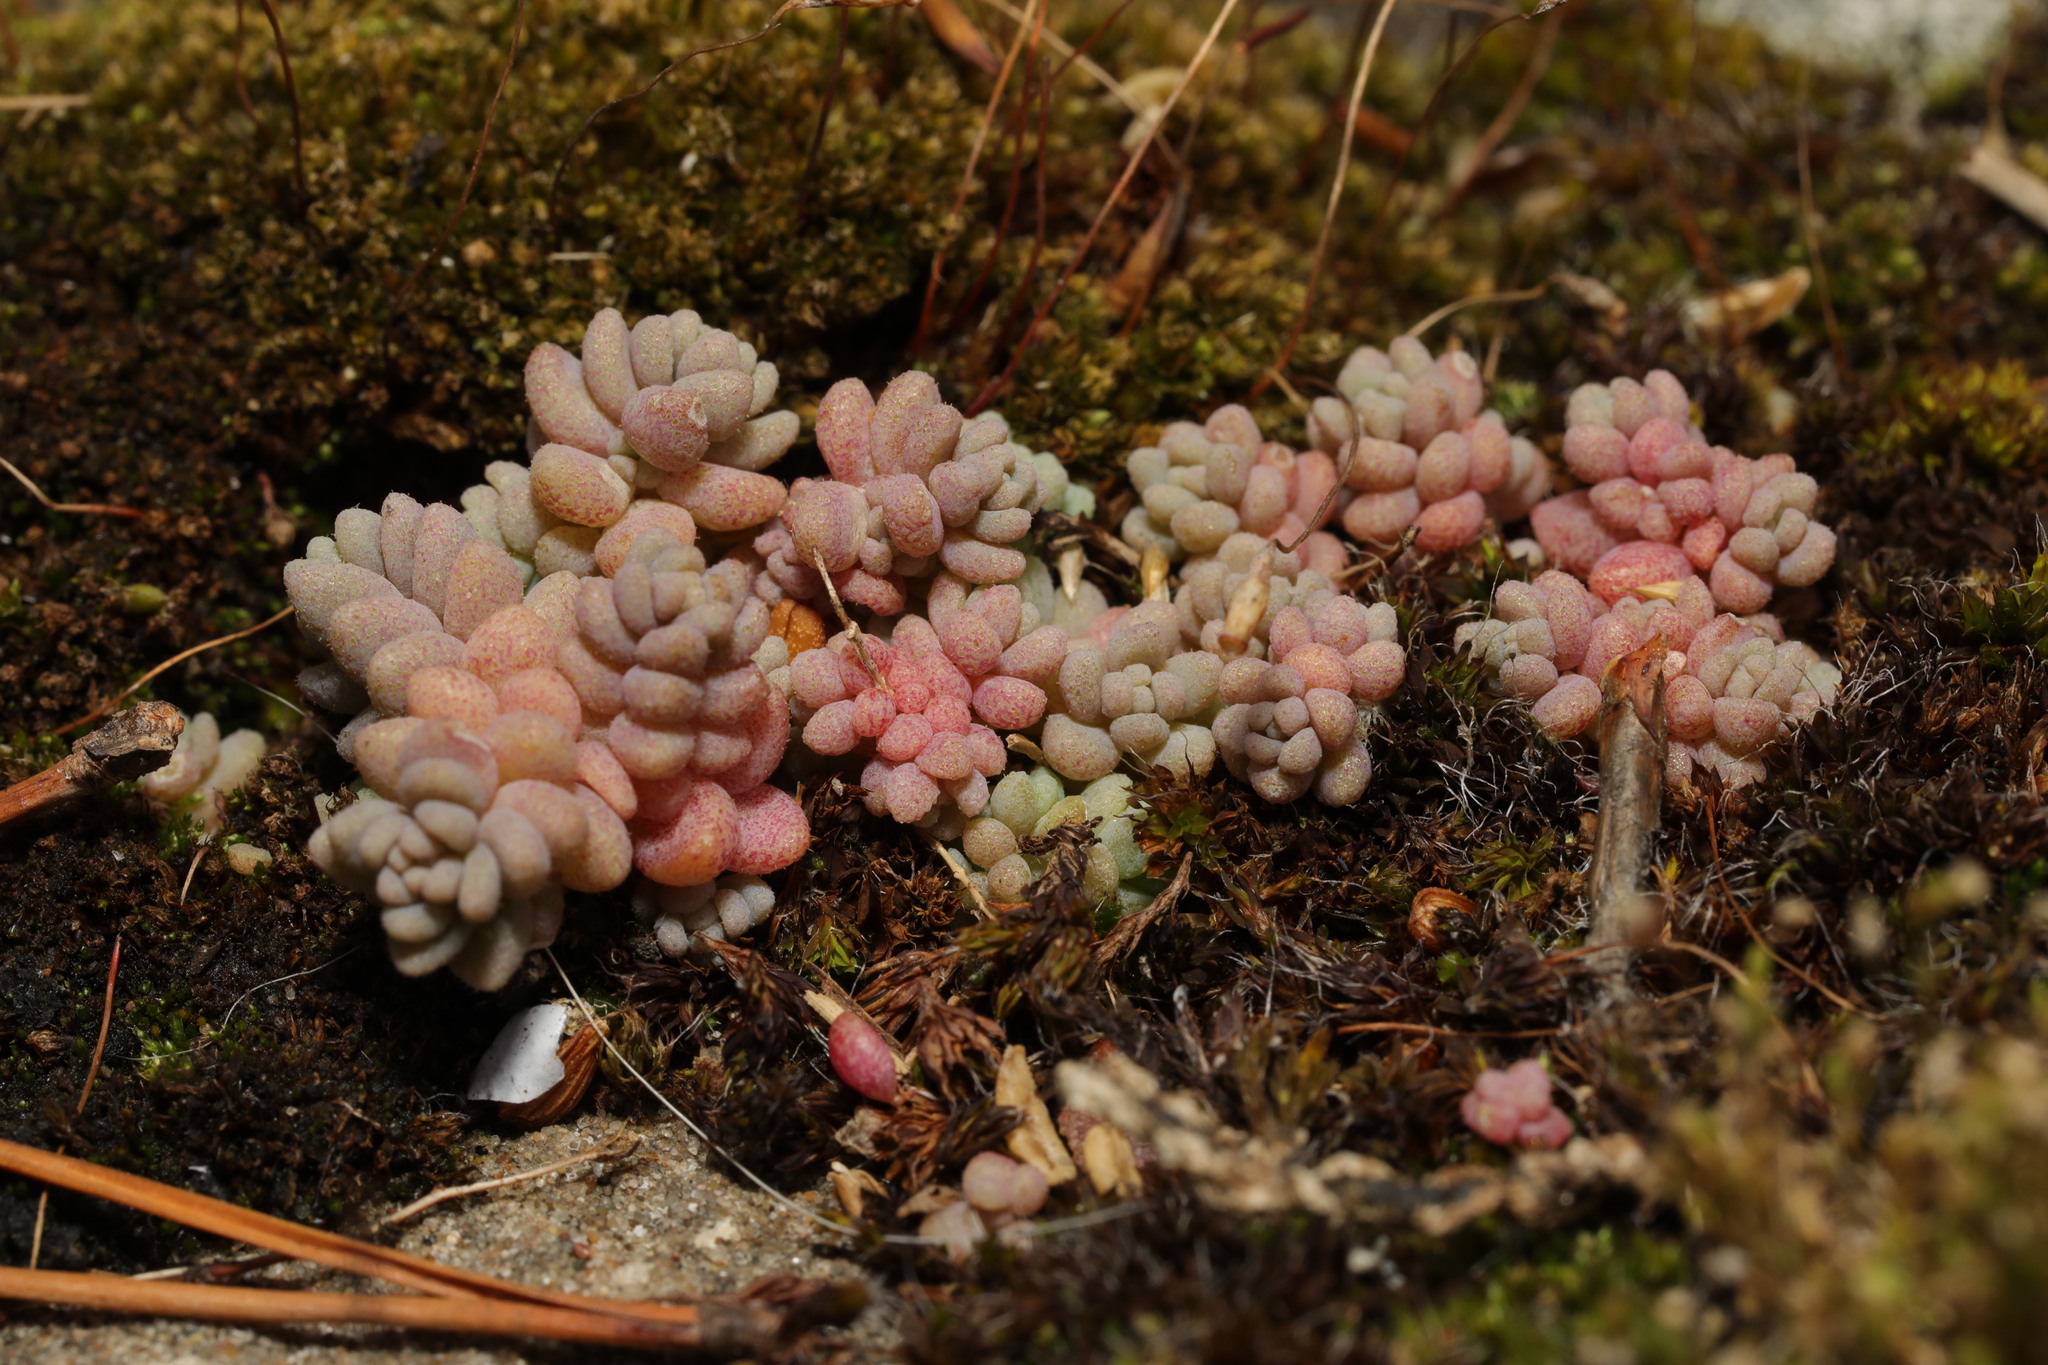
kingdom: Plantae
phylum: Tracheophyta
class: Magnoliopsida
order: Saxifragales
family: Crassulaceae
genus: Sedum
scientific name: Sedum dasyphyllum
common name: Thick-leaf stonecrop
